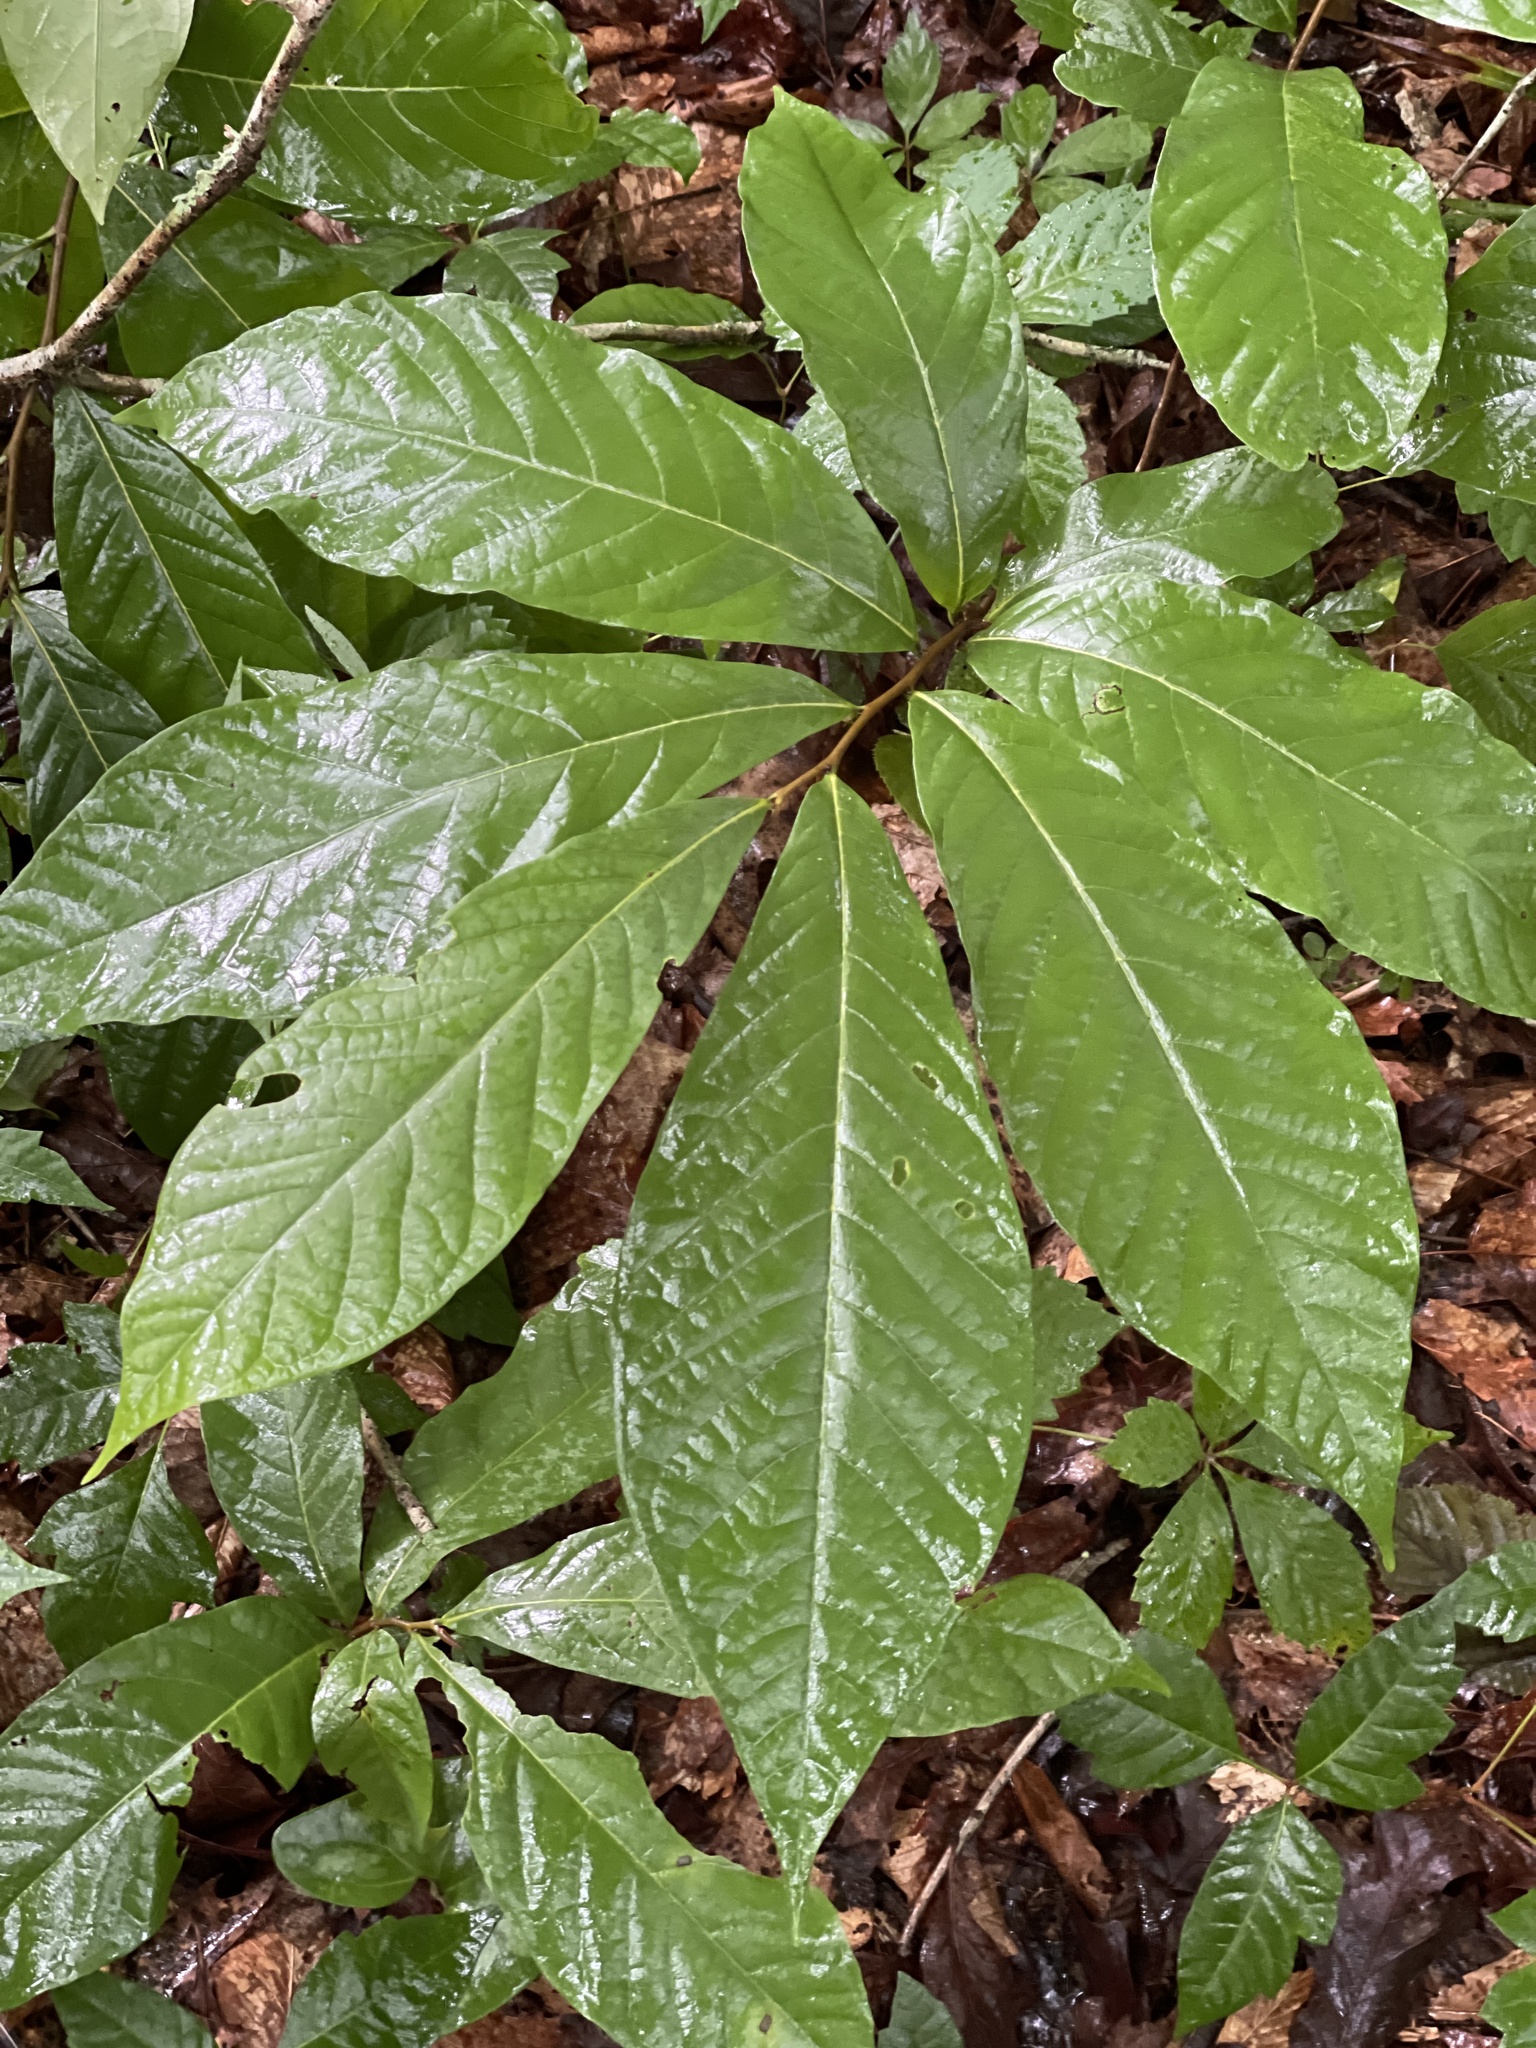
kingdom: Plantae
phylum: Tracheophyta
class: Magnoliopsida
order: Magnoliales
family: Annonaceae
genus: Asimina
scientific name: Asimina piedmontana
